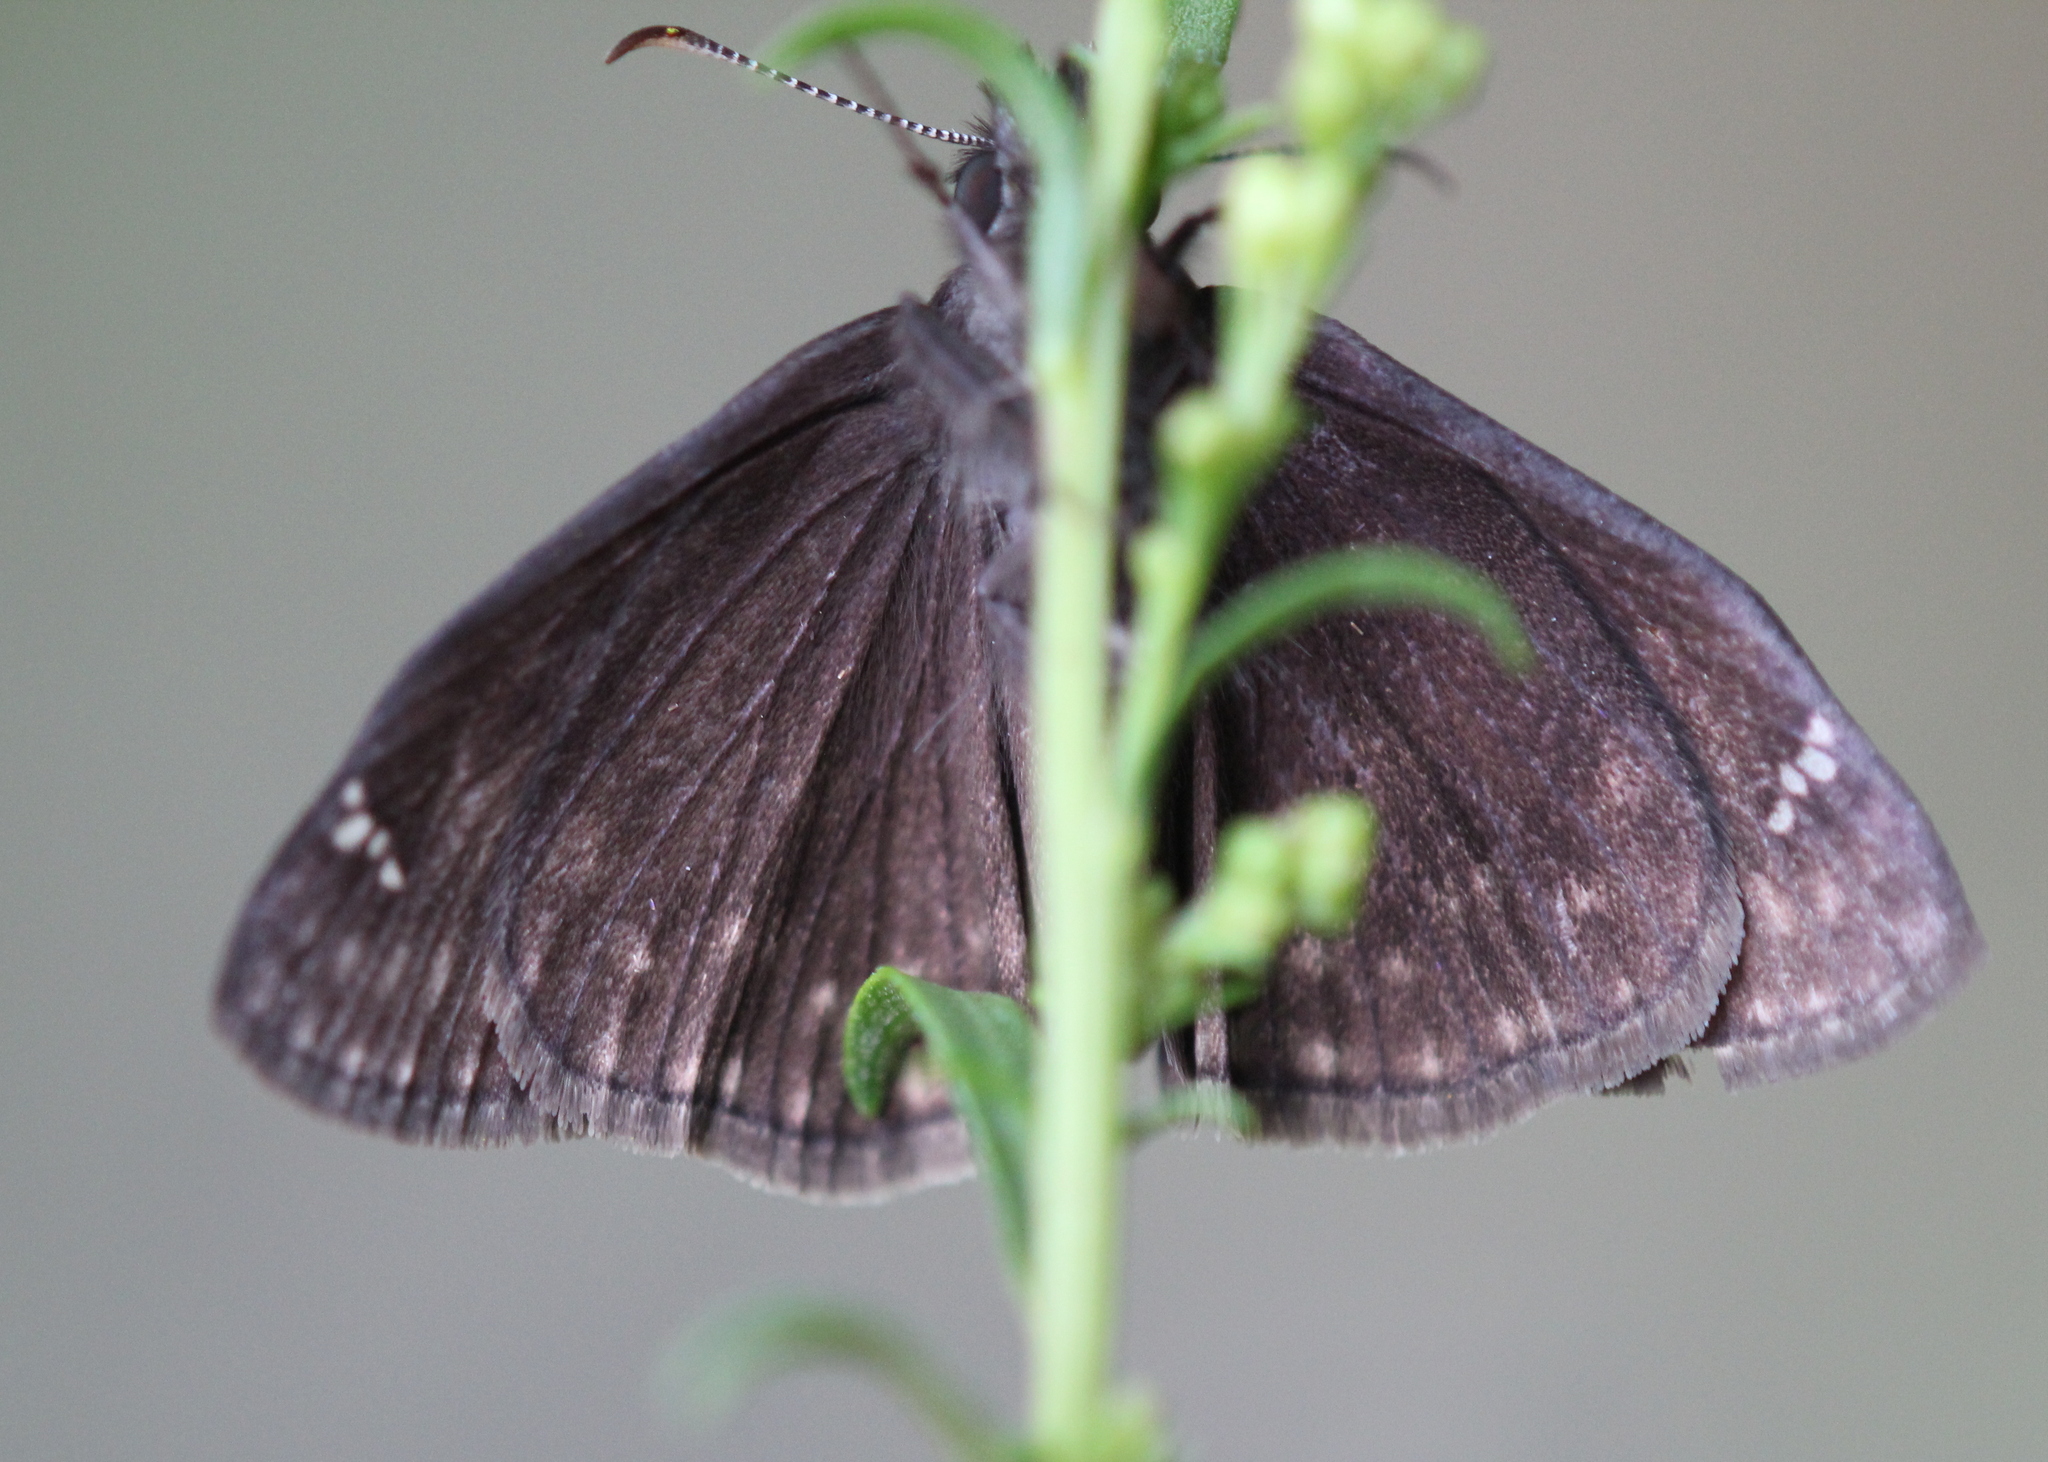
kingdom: Animalia
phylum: Arthropoda
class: Insecta
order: Lepidoptera
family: Hesperiidae
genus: Erynnis
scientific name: Erynnis baptisiae
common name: Wild indigo duskywing
